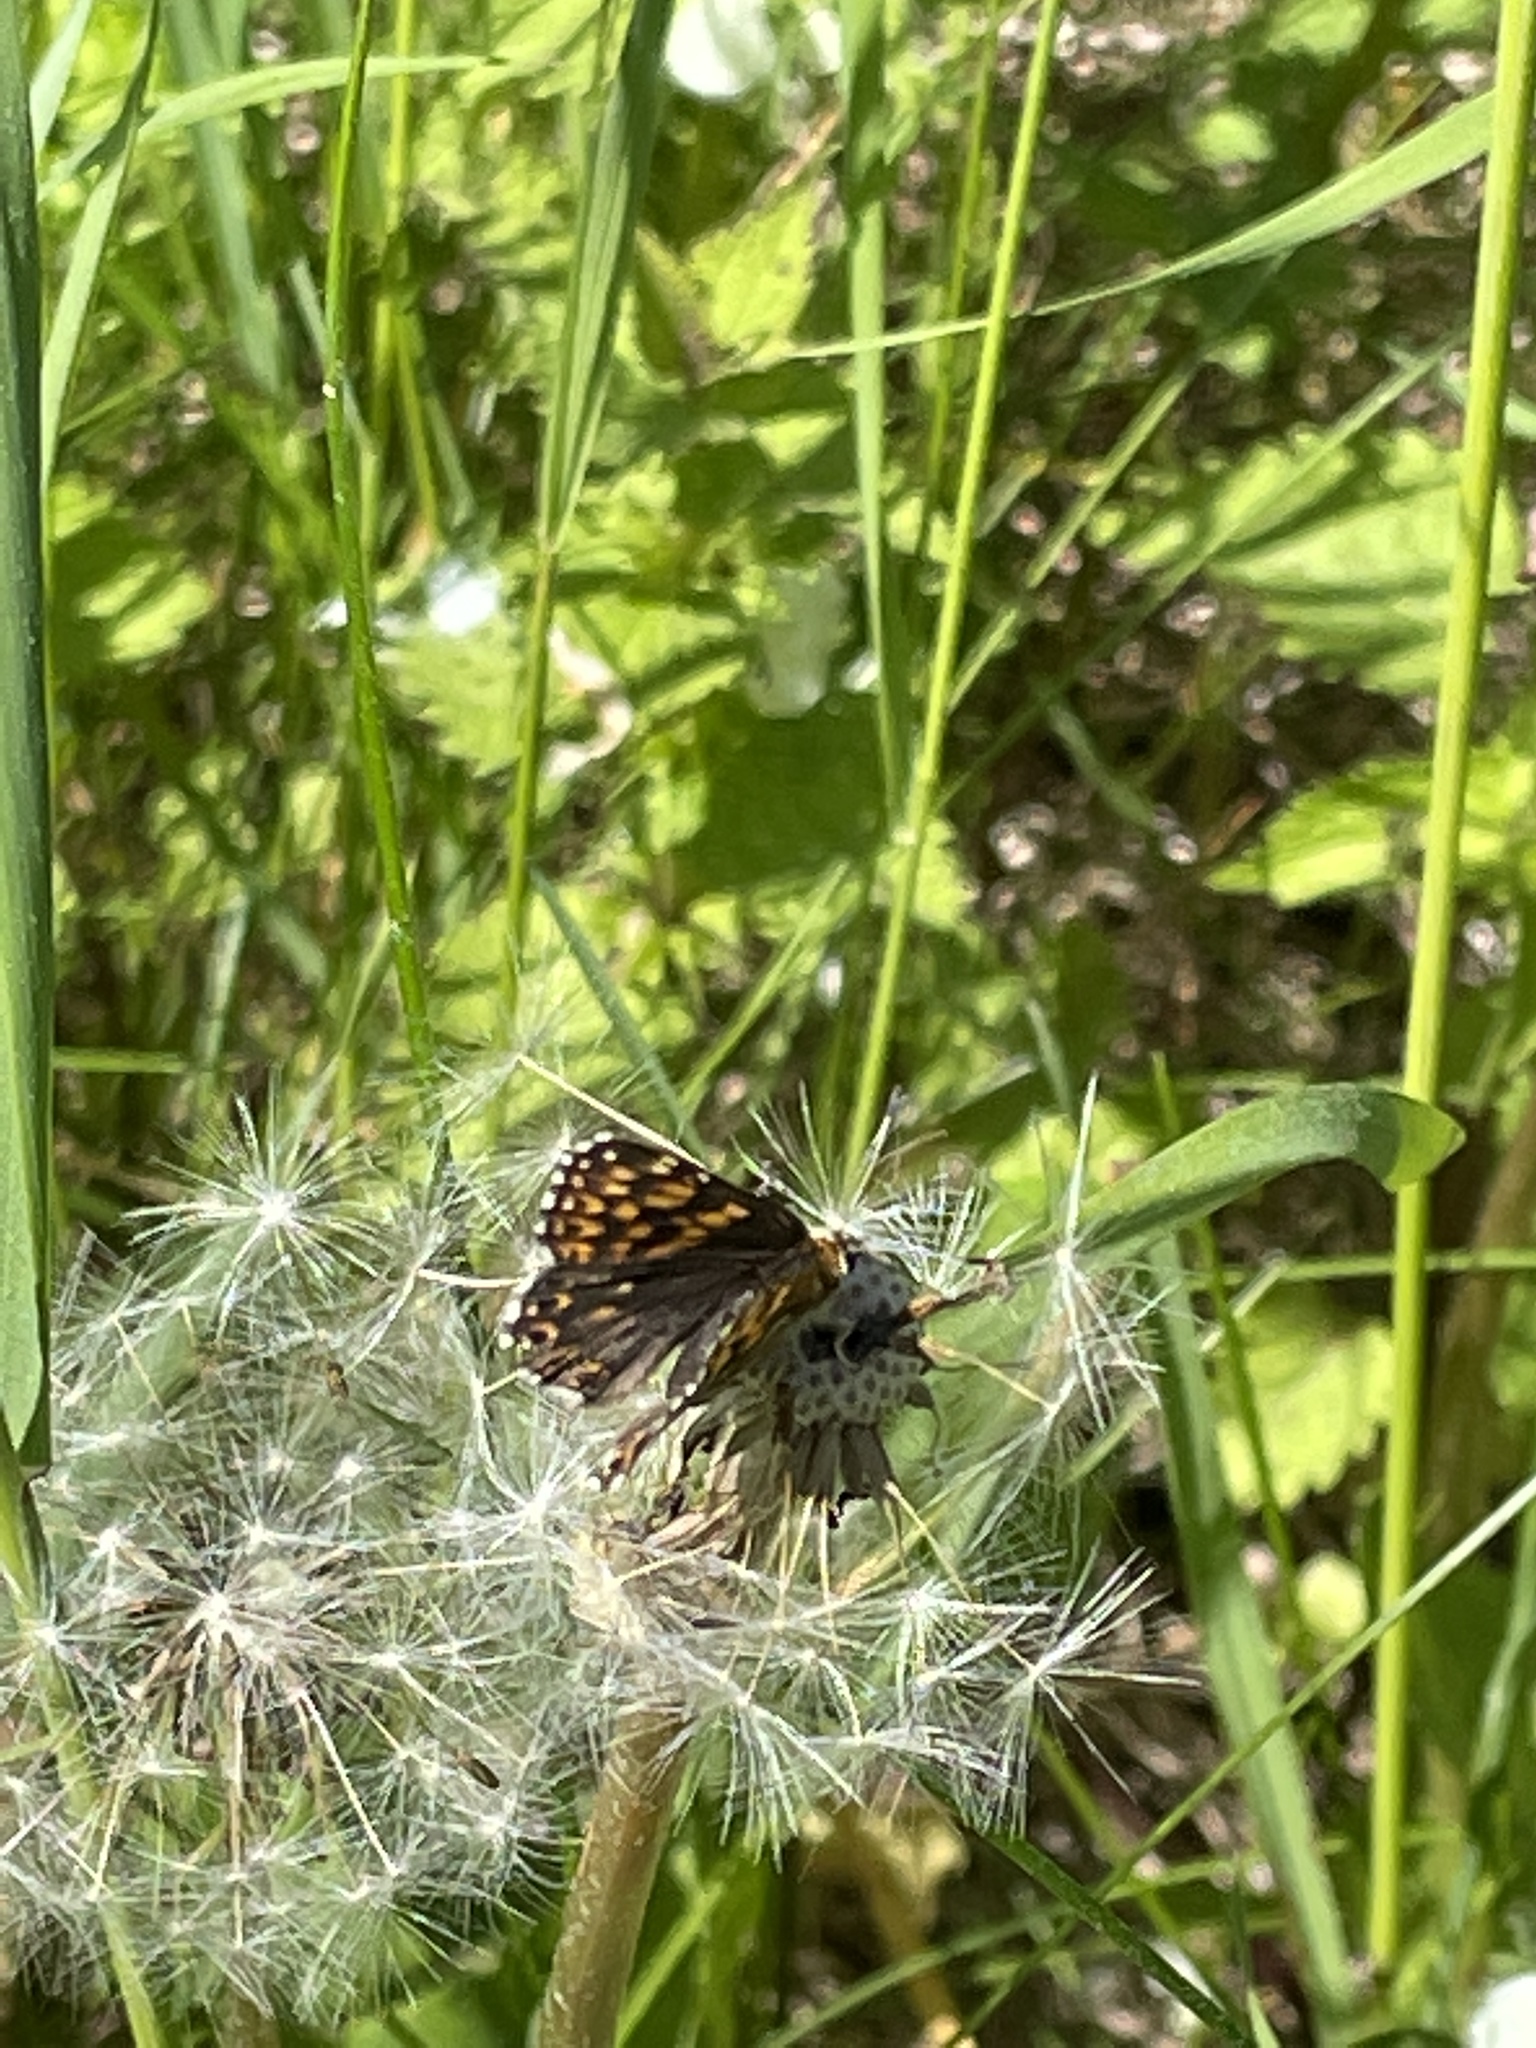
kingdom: Animalia
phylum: Arthropoda
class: Insecta
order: Lepidoptera
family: Riodinidae
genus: Hamearis
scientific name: Hamearis lucina
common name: Duke of burgundy fritillary
